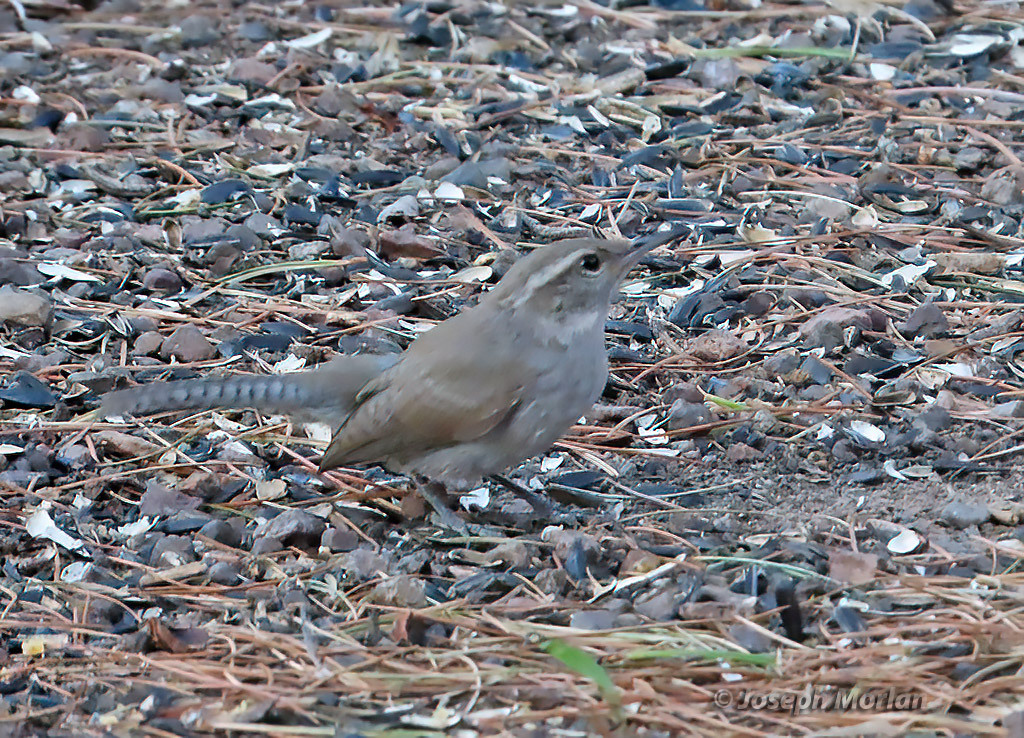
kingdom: Animalia
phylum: Chordata
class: Aves
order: Passeriformes
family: Troglodytidae
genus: Thryomanes
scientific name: Thryomanes bewickii
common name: Bewick's wren
